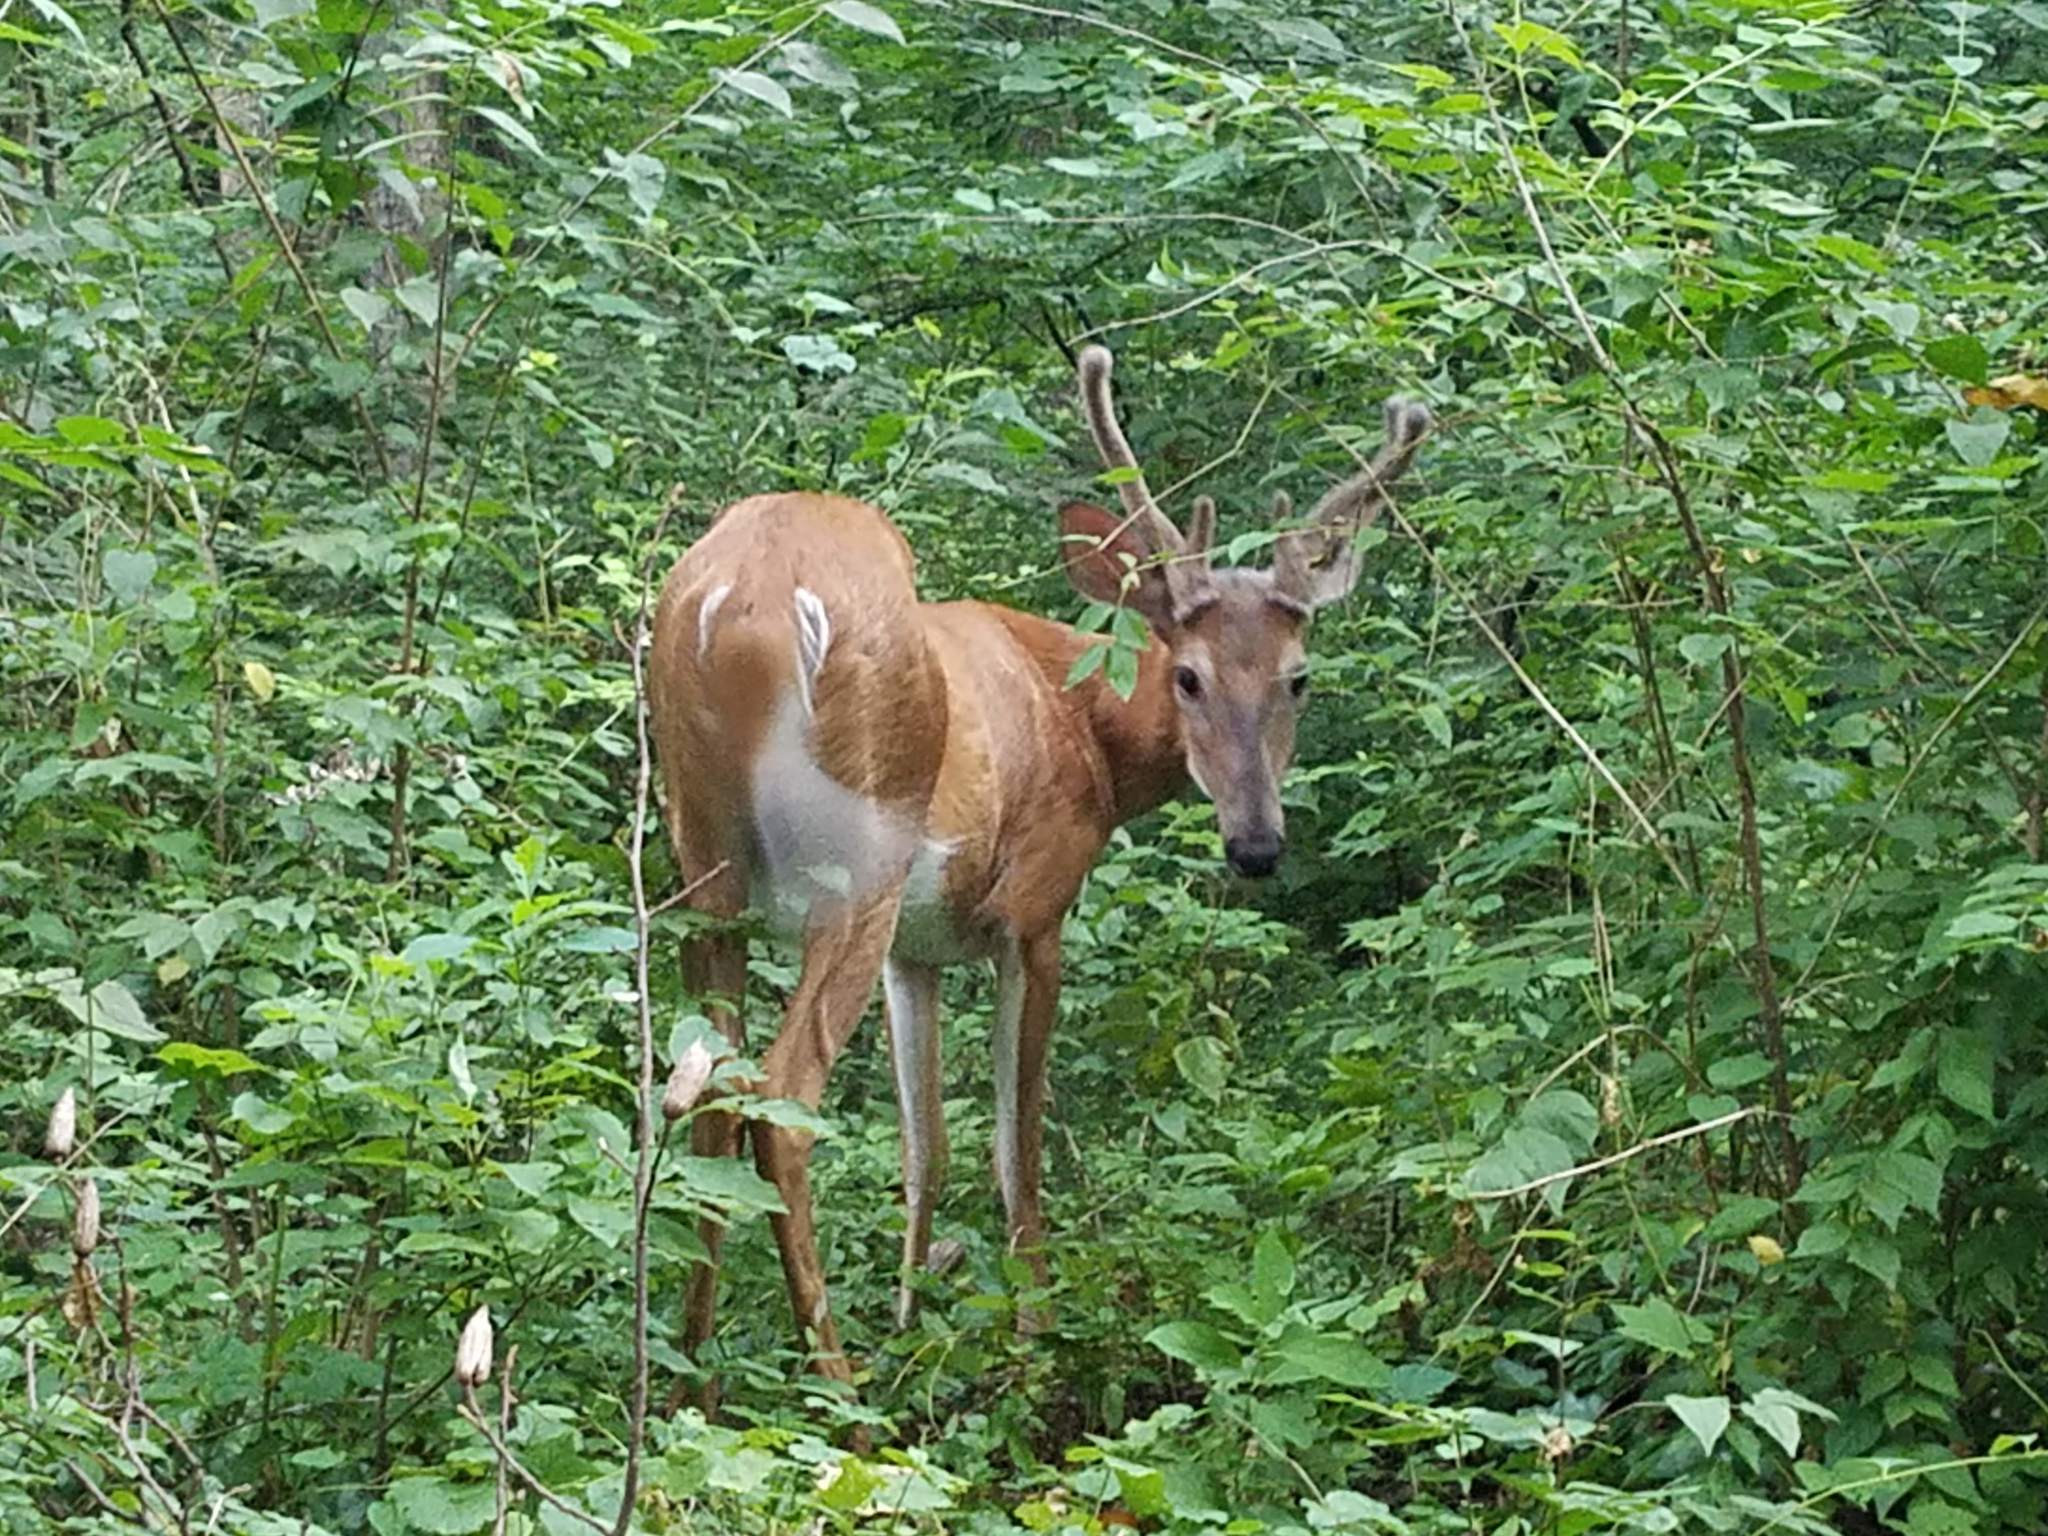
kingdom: Animalia
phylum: Chordata
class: Mammalia
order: Artiodactyla
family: Cervidae
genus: Odocoileus
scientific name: Odocoileus virginianus
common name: White-tailed deer
